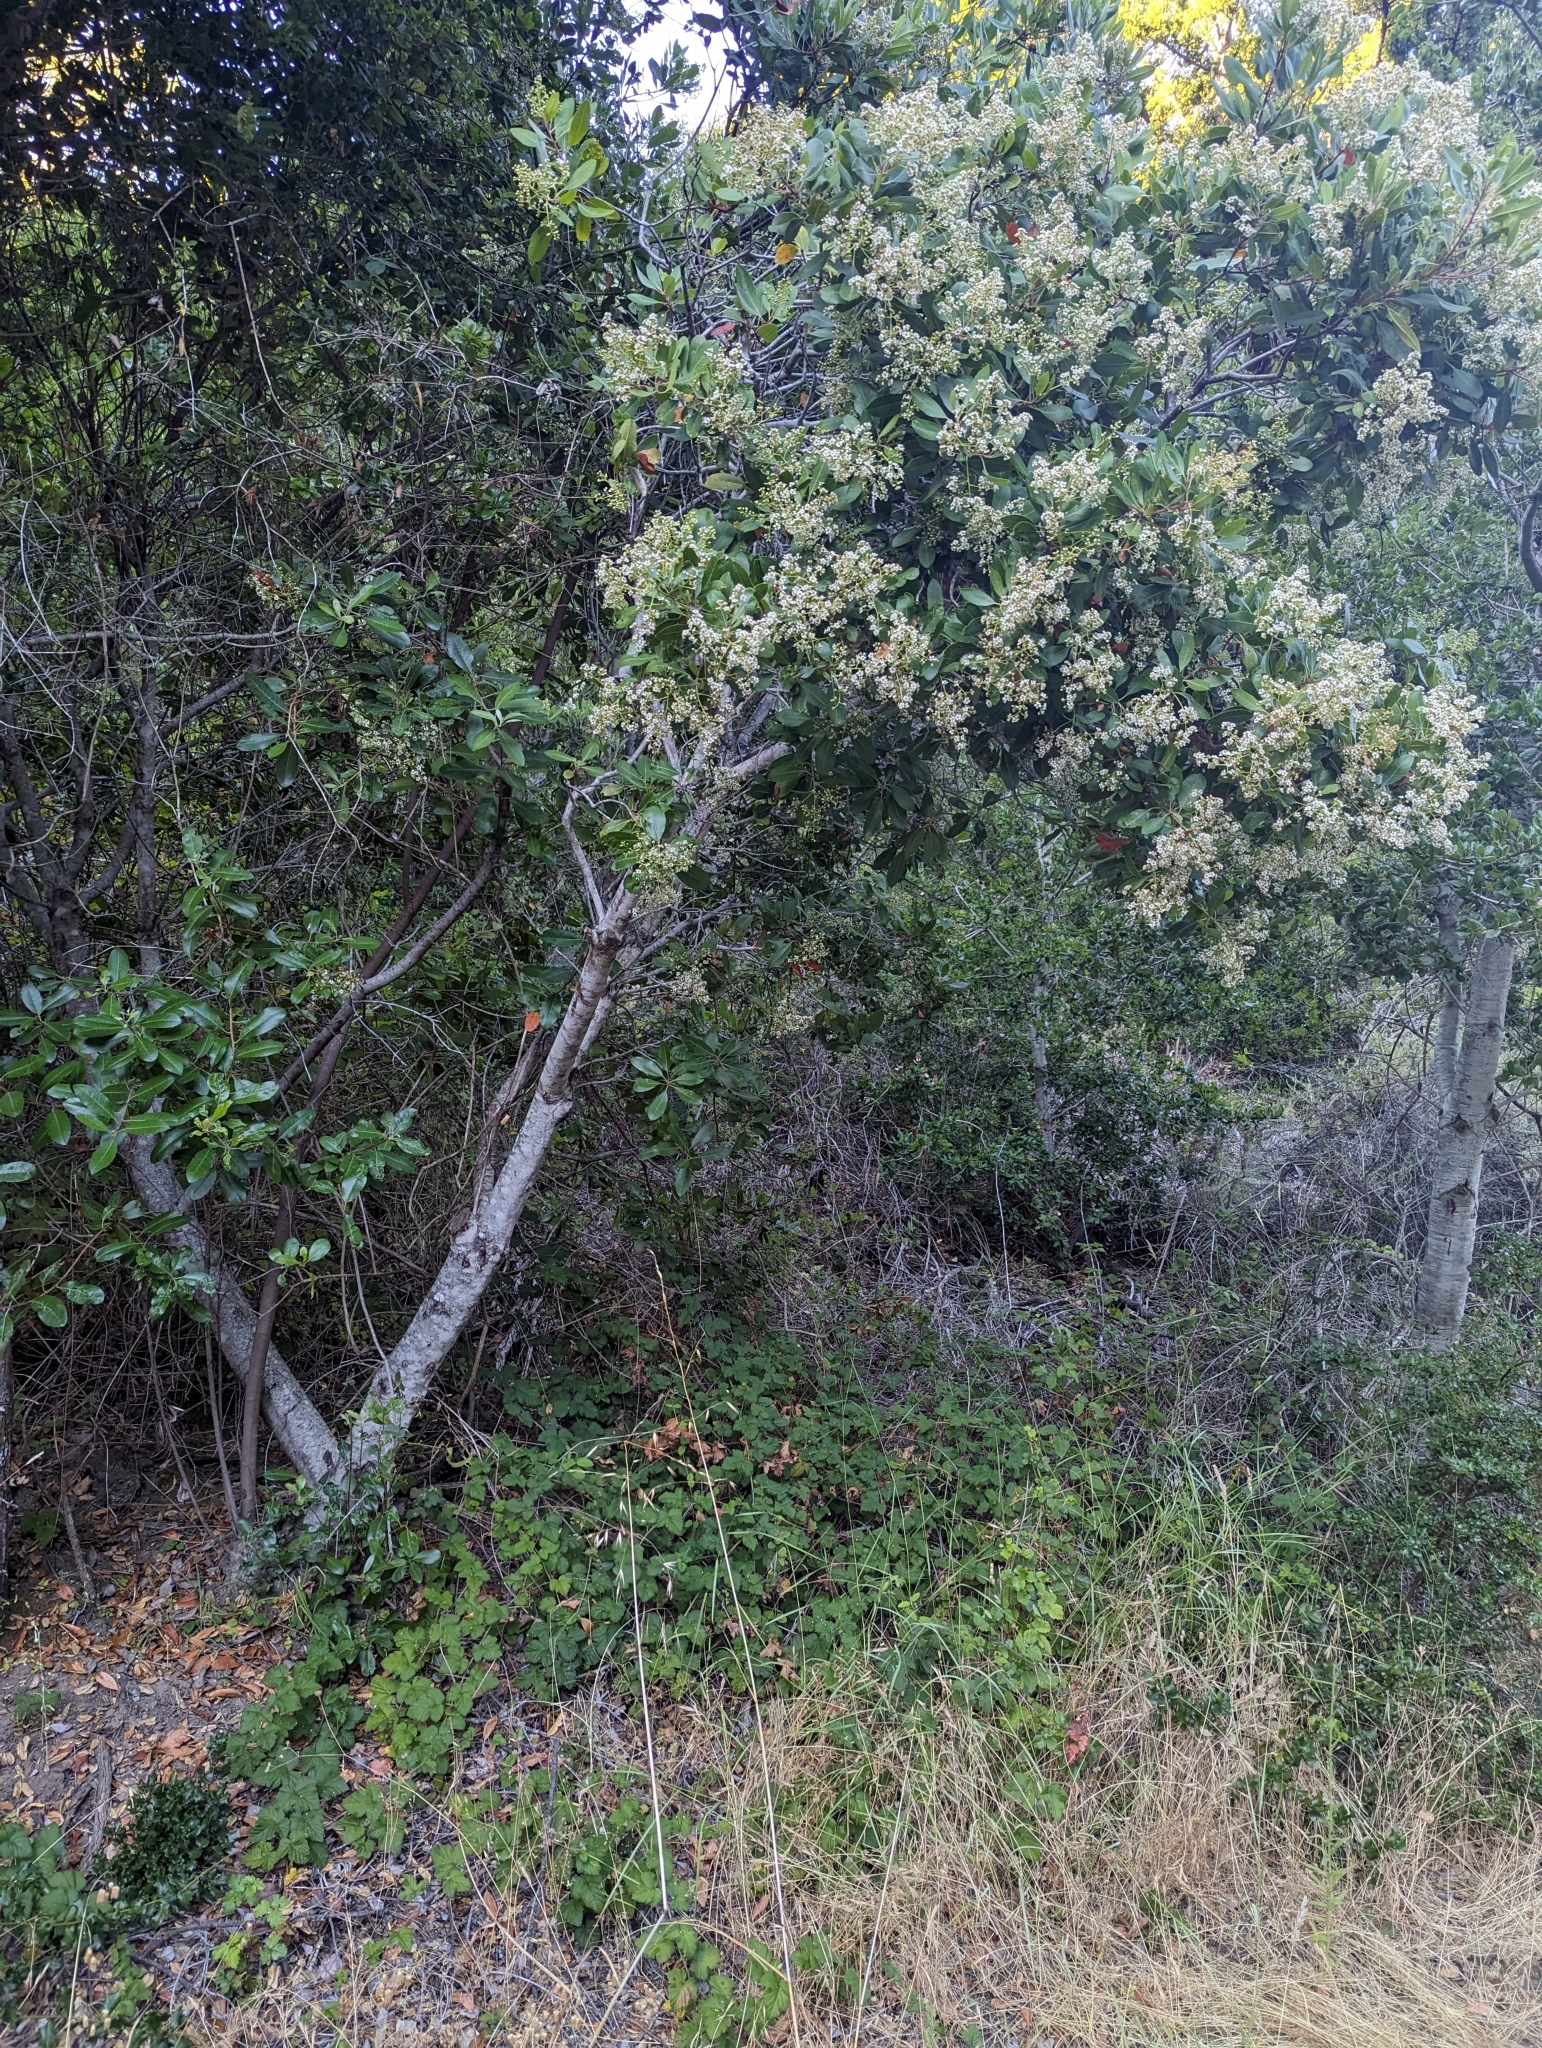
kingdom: Plantae
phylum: Tracheophyta
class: Magnoliopsida
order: Rosales
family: Rosaceae
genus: Heteromeles
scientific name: Heteromeles arbutifolia
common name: California-holly
